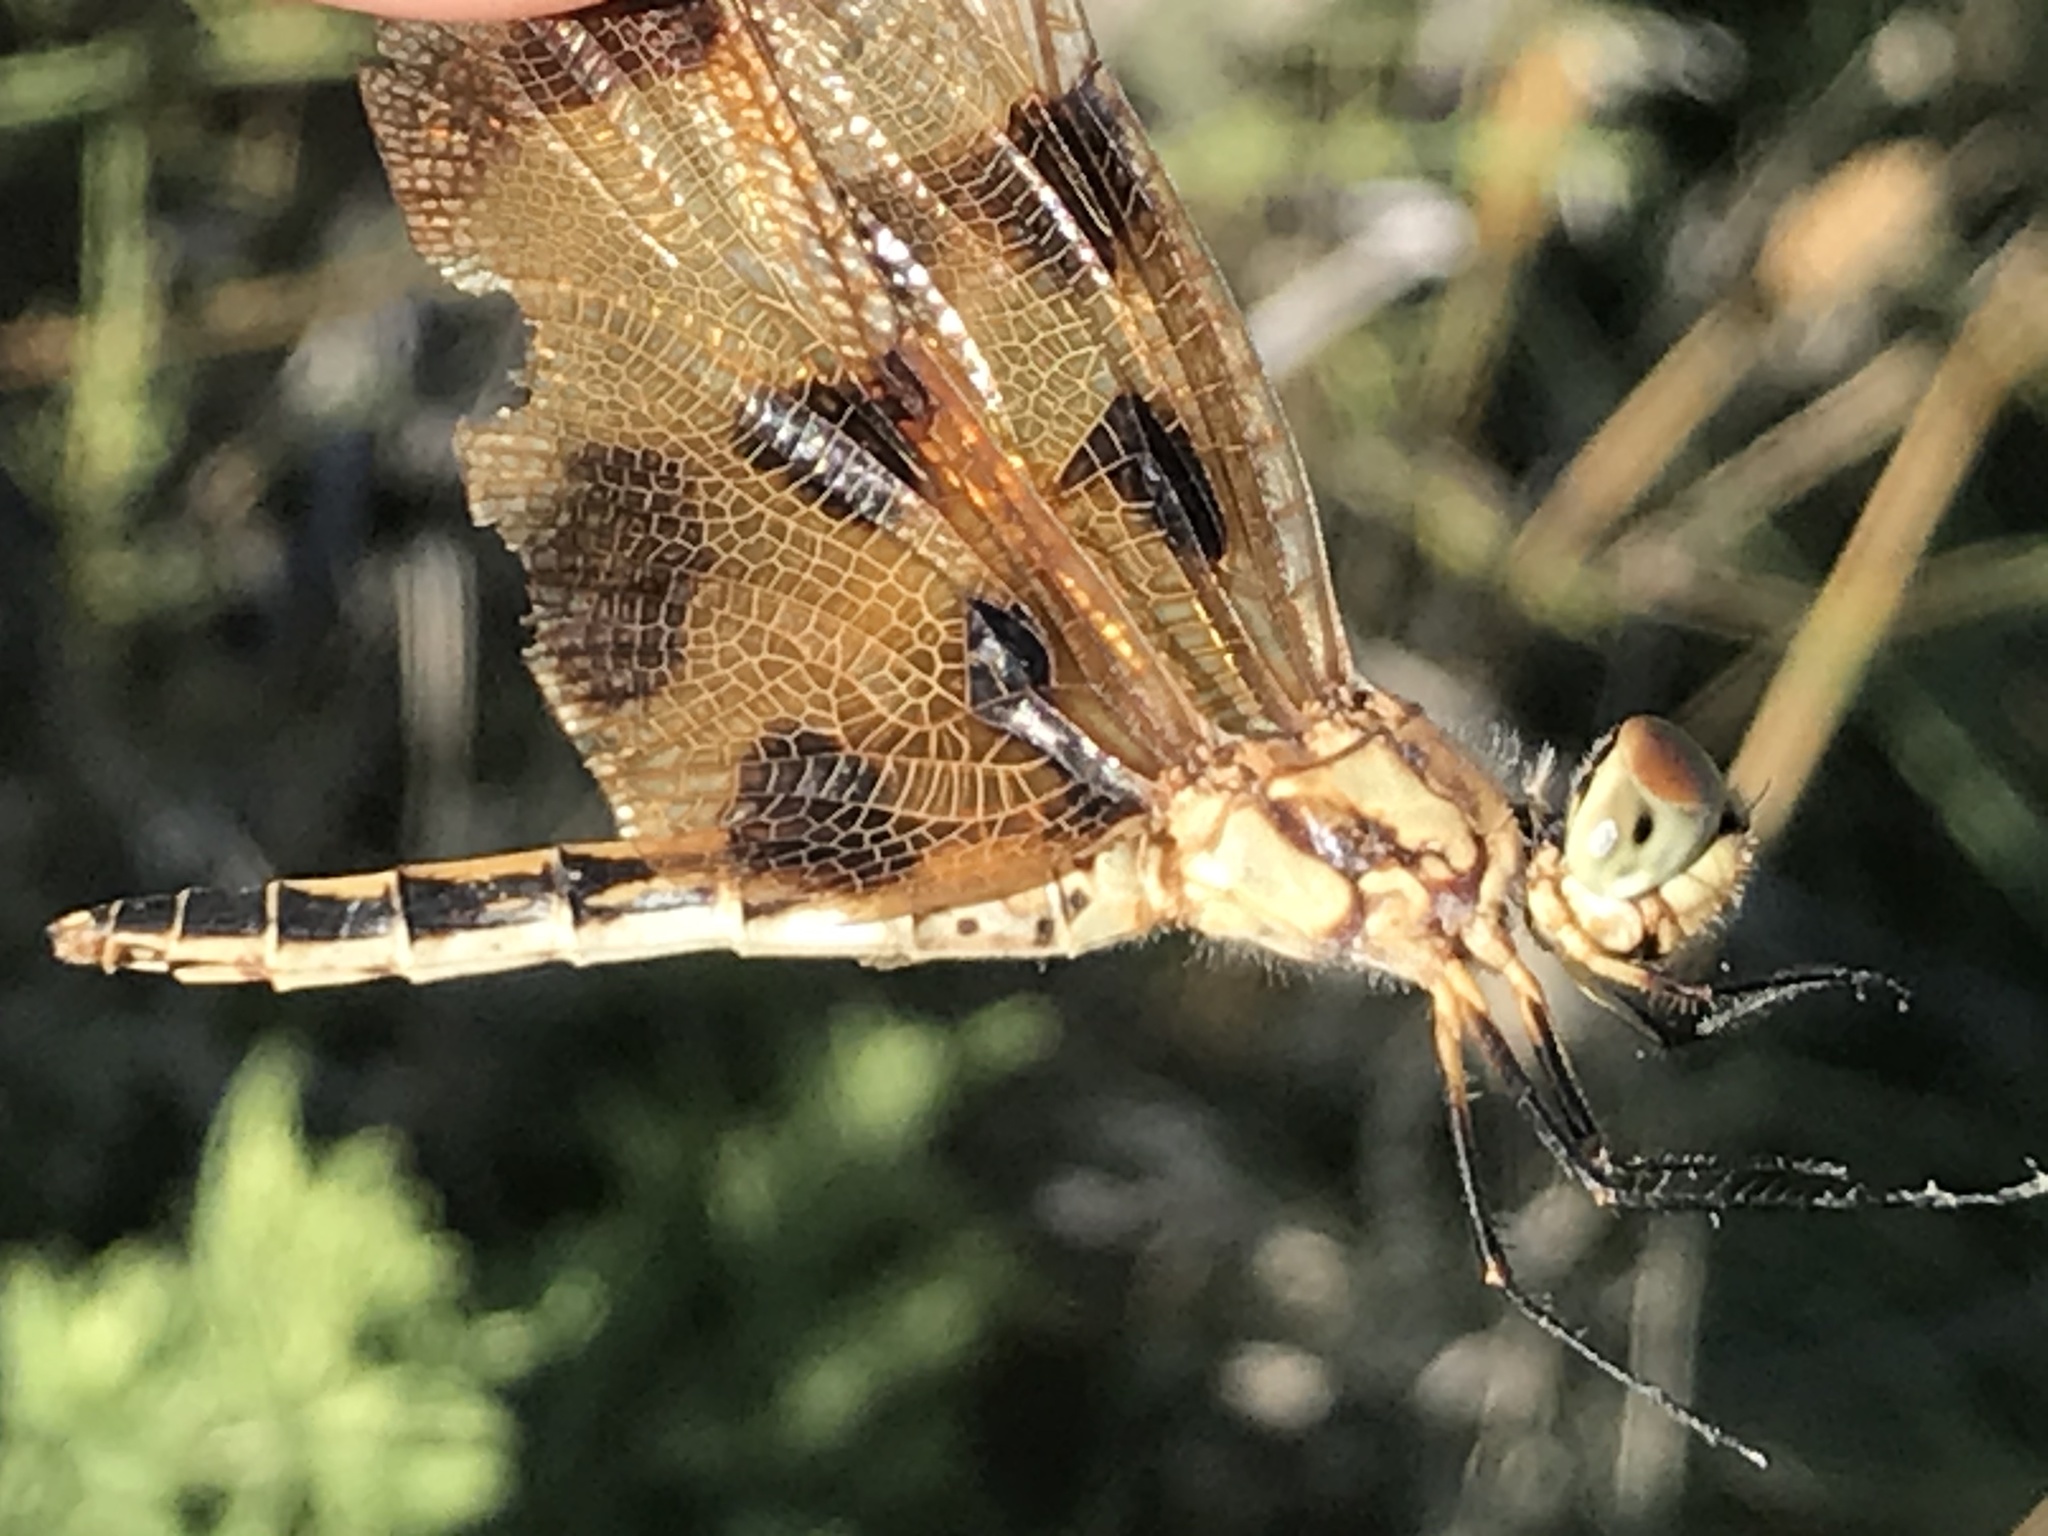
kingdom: Animalia
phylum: Arthropoda
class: Insecta
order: Odonata
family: Libellulidae
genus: Celithemis
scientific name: Celithemis eponina
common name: Halloween pennant
